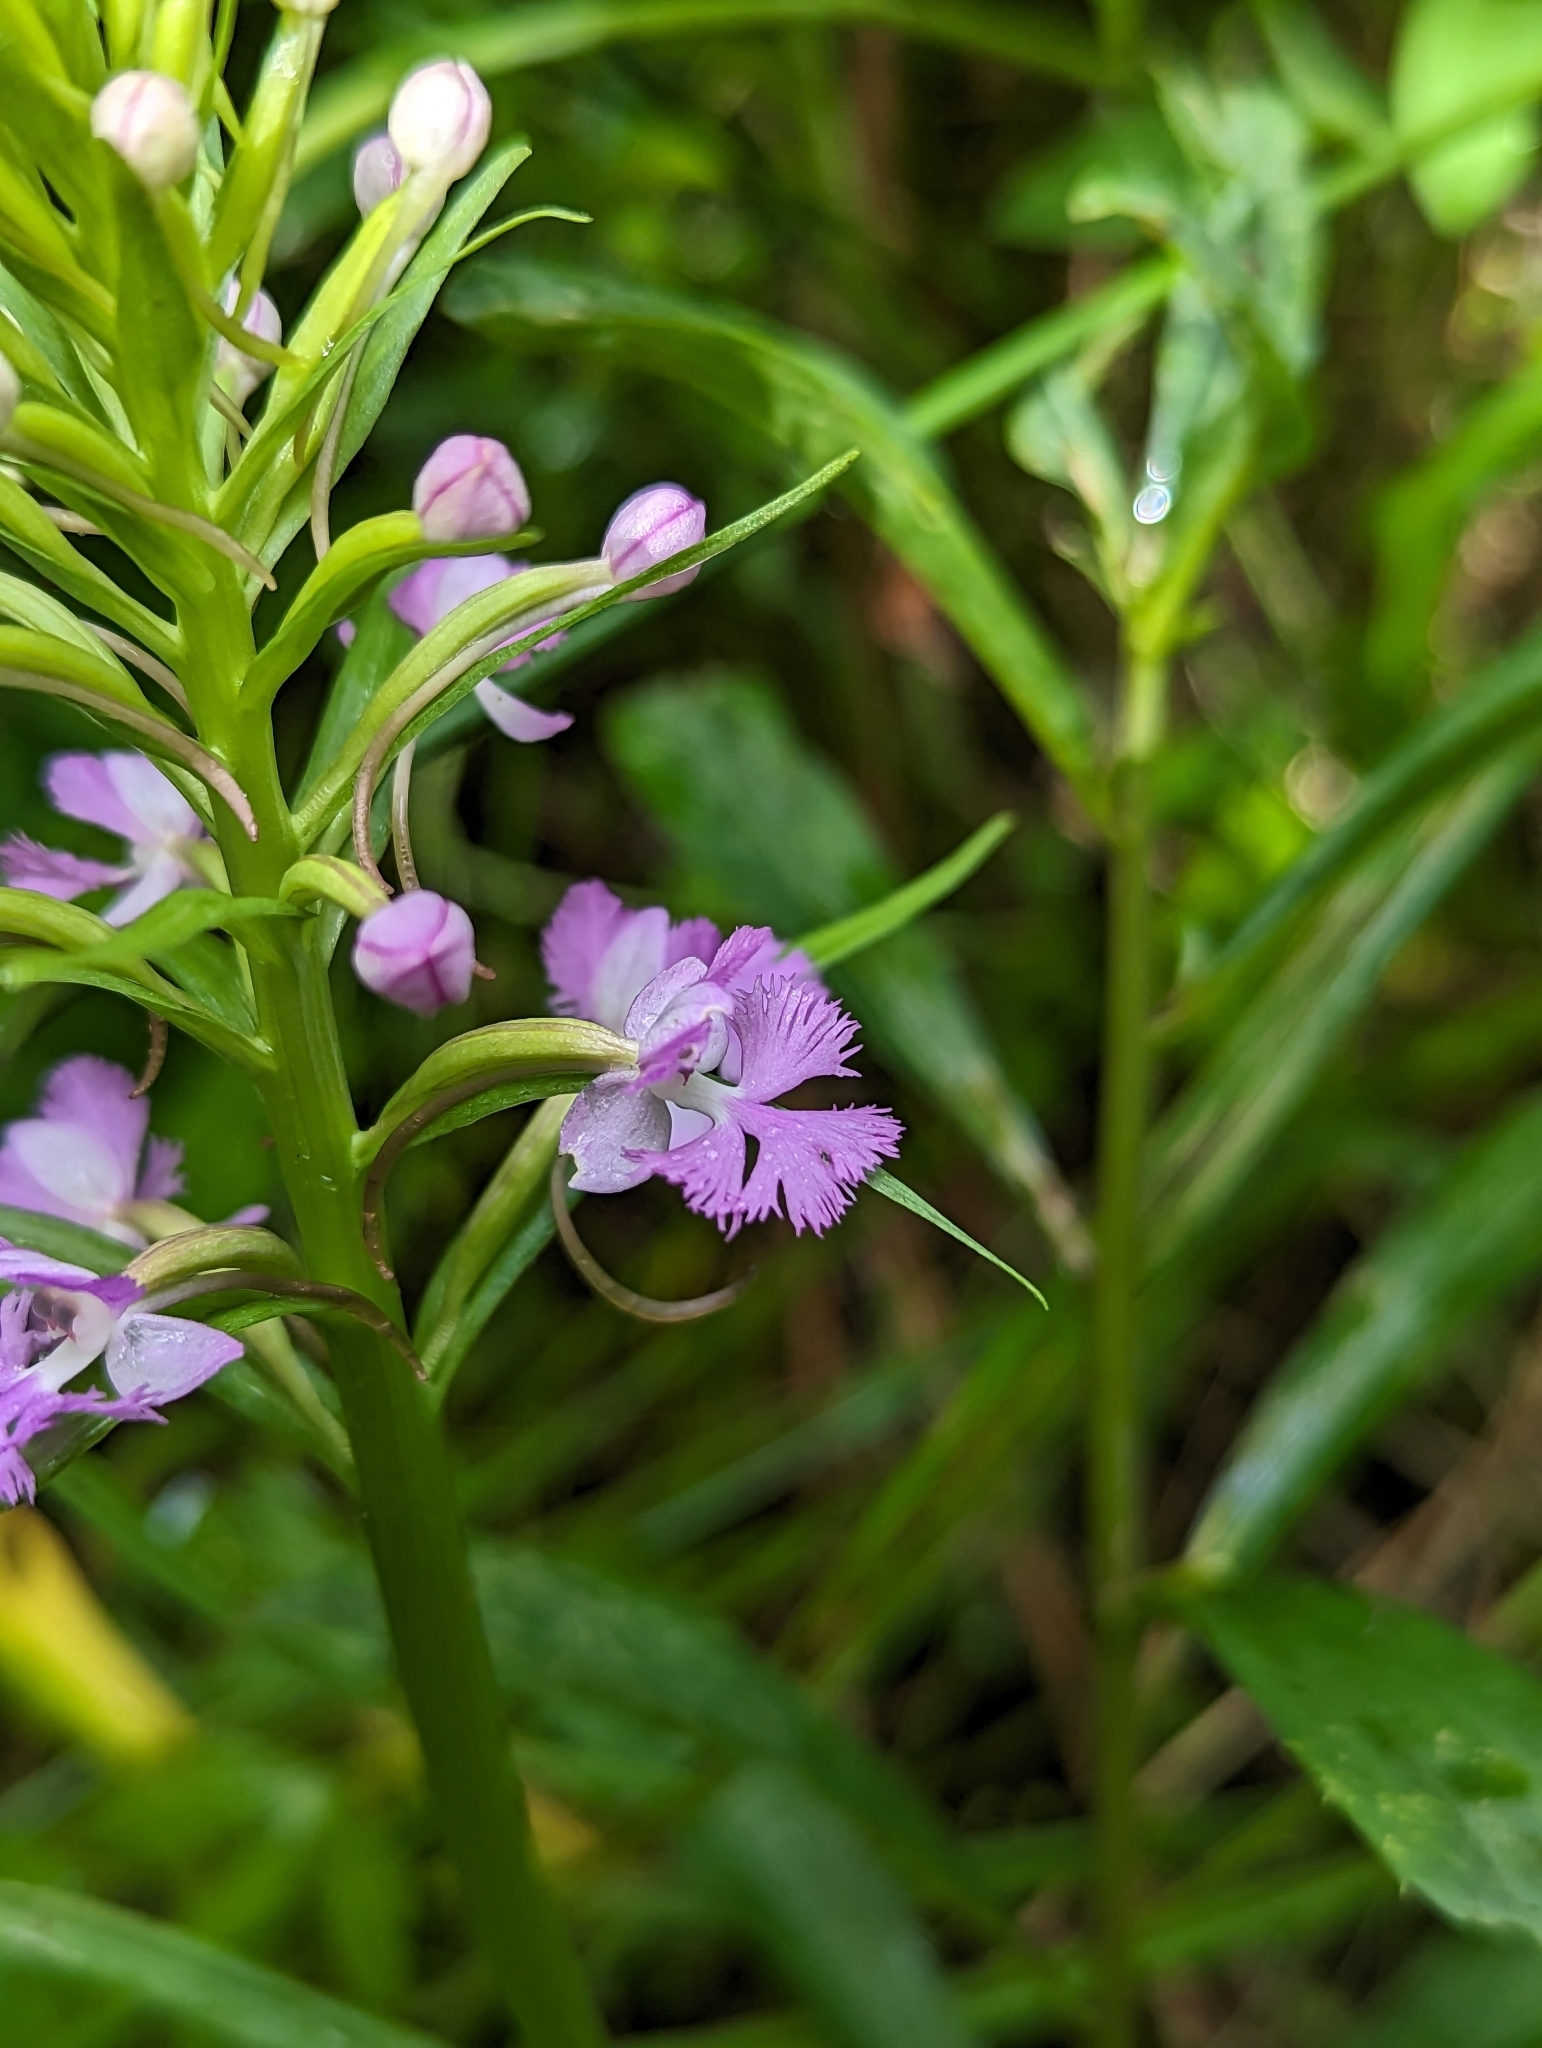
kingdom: Plantae
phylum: Tracheophyta
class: Liliopsida
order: Asparagales
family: Orchidaceae
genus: Platanthera
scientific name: Platanthera psycodes
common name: Lesser purple fringed orchid
